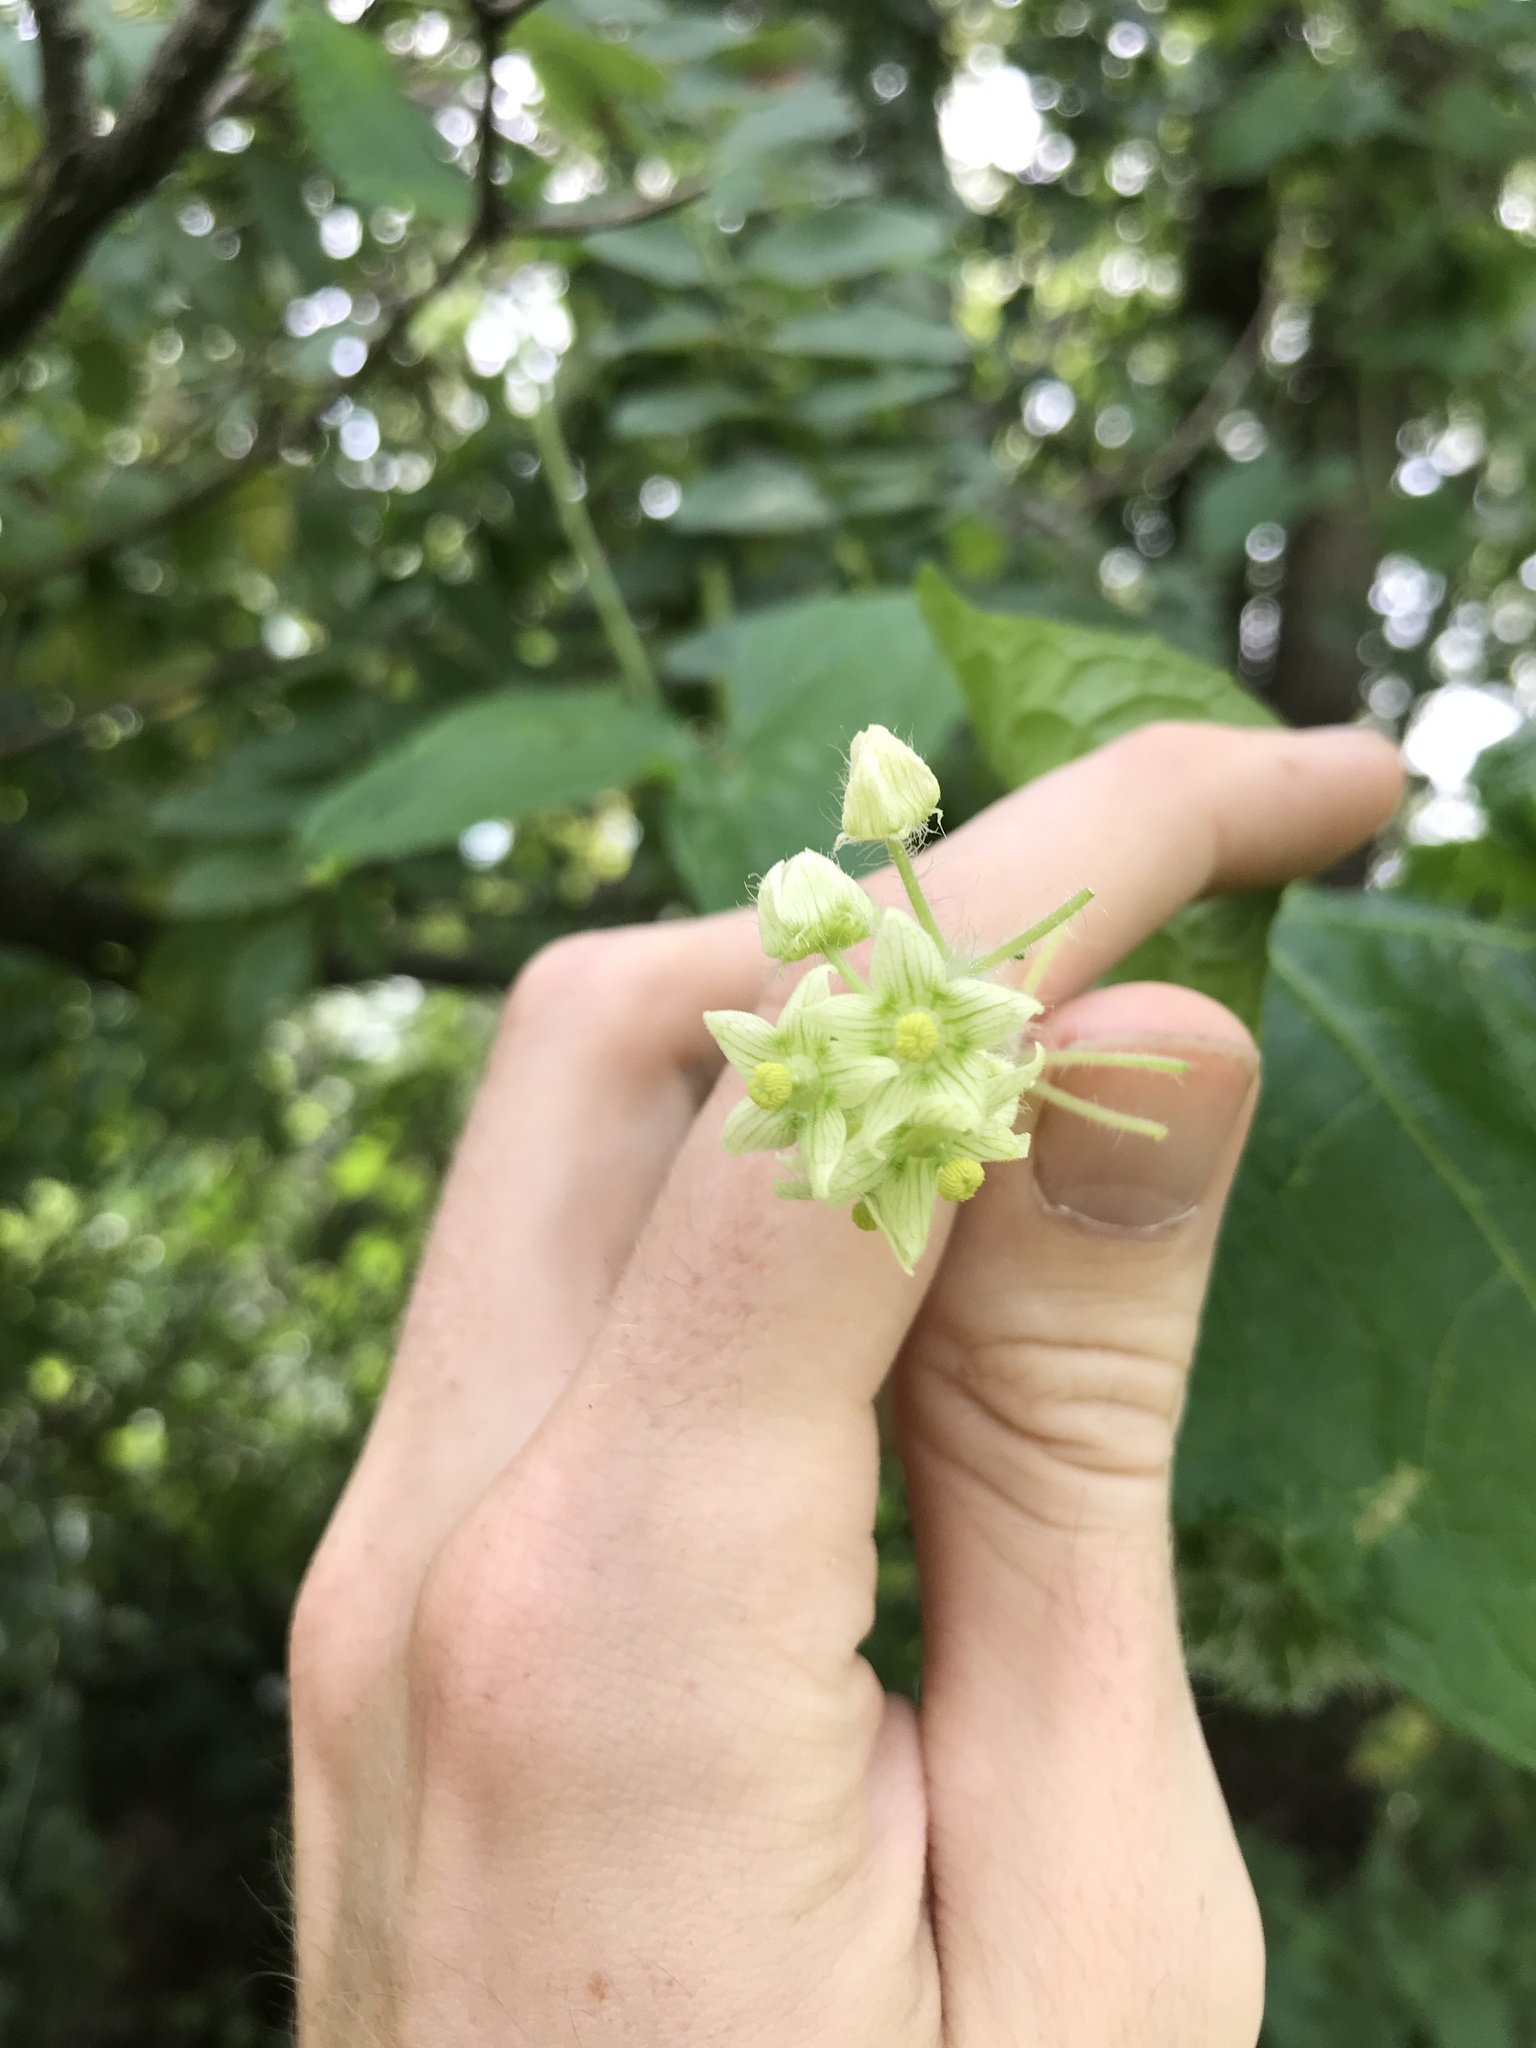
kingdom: Plantae
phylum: Tracheophyta
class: Magnoliopsida
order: Cucurbitales
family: Cucurbitaceae
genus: Sicyos
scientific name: Sicyos angulatus
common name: Angled burr cucumber
